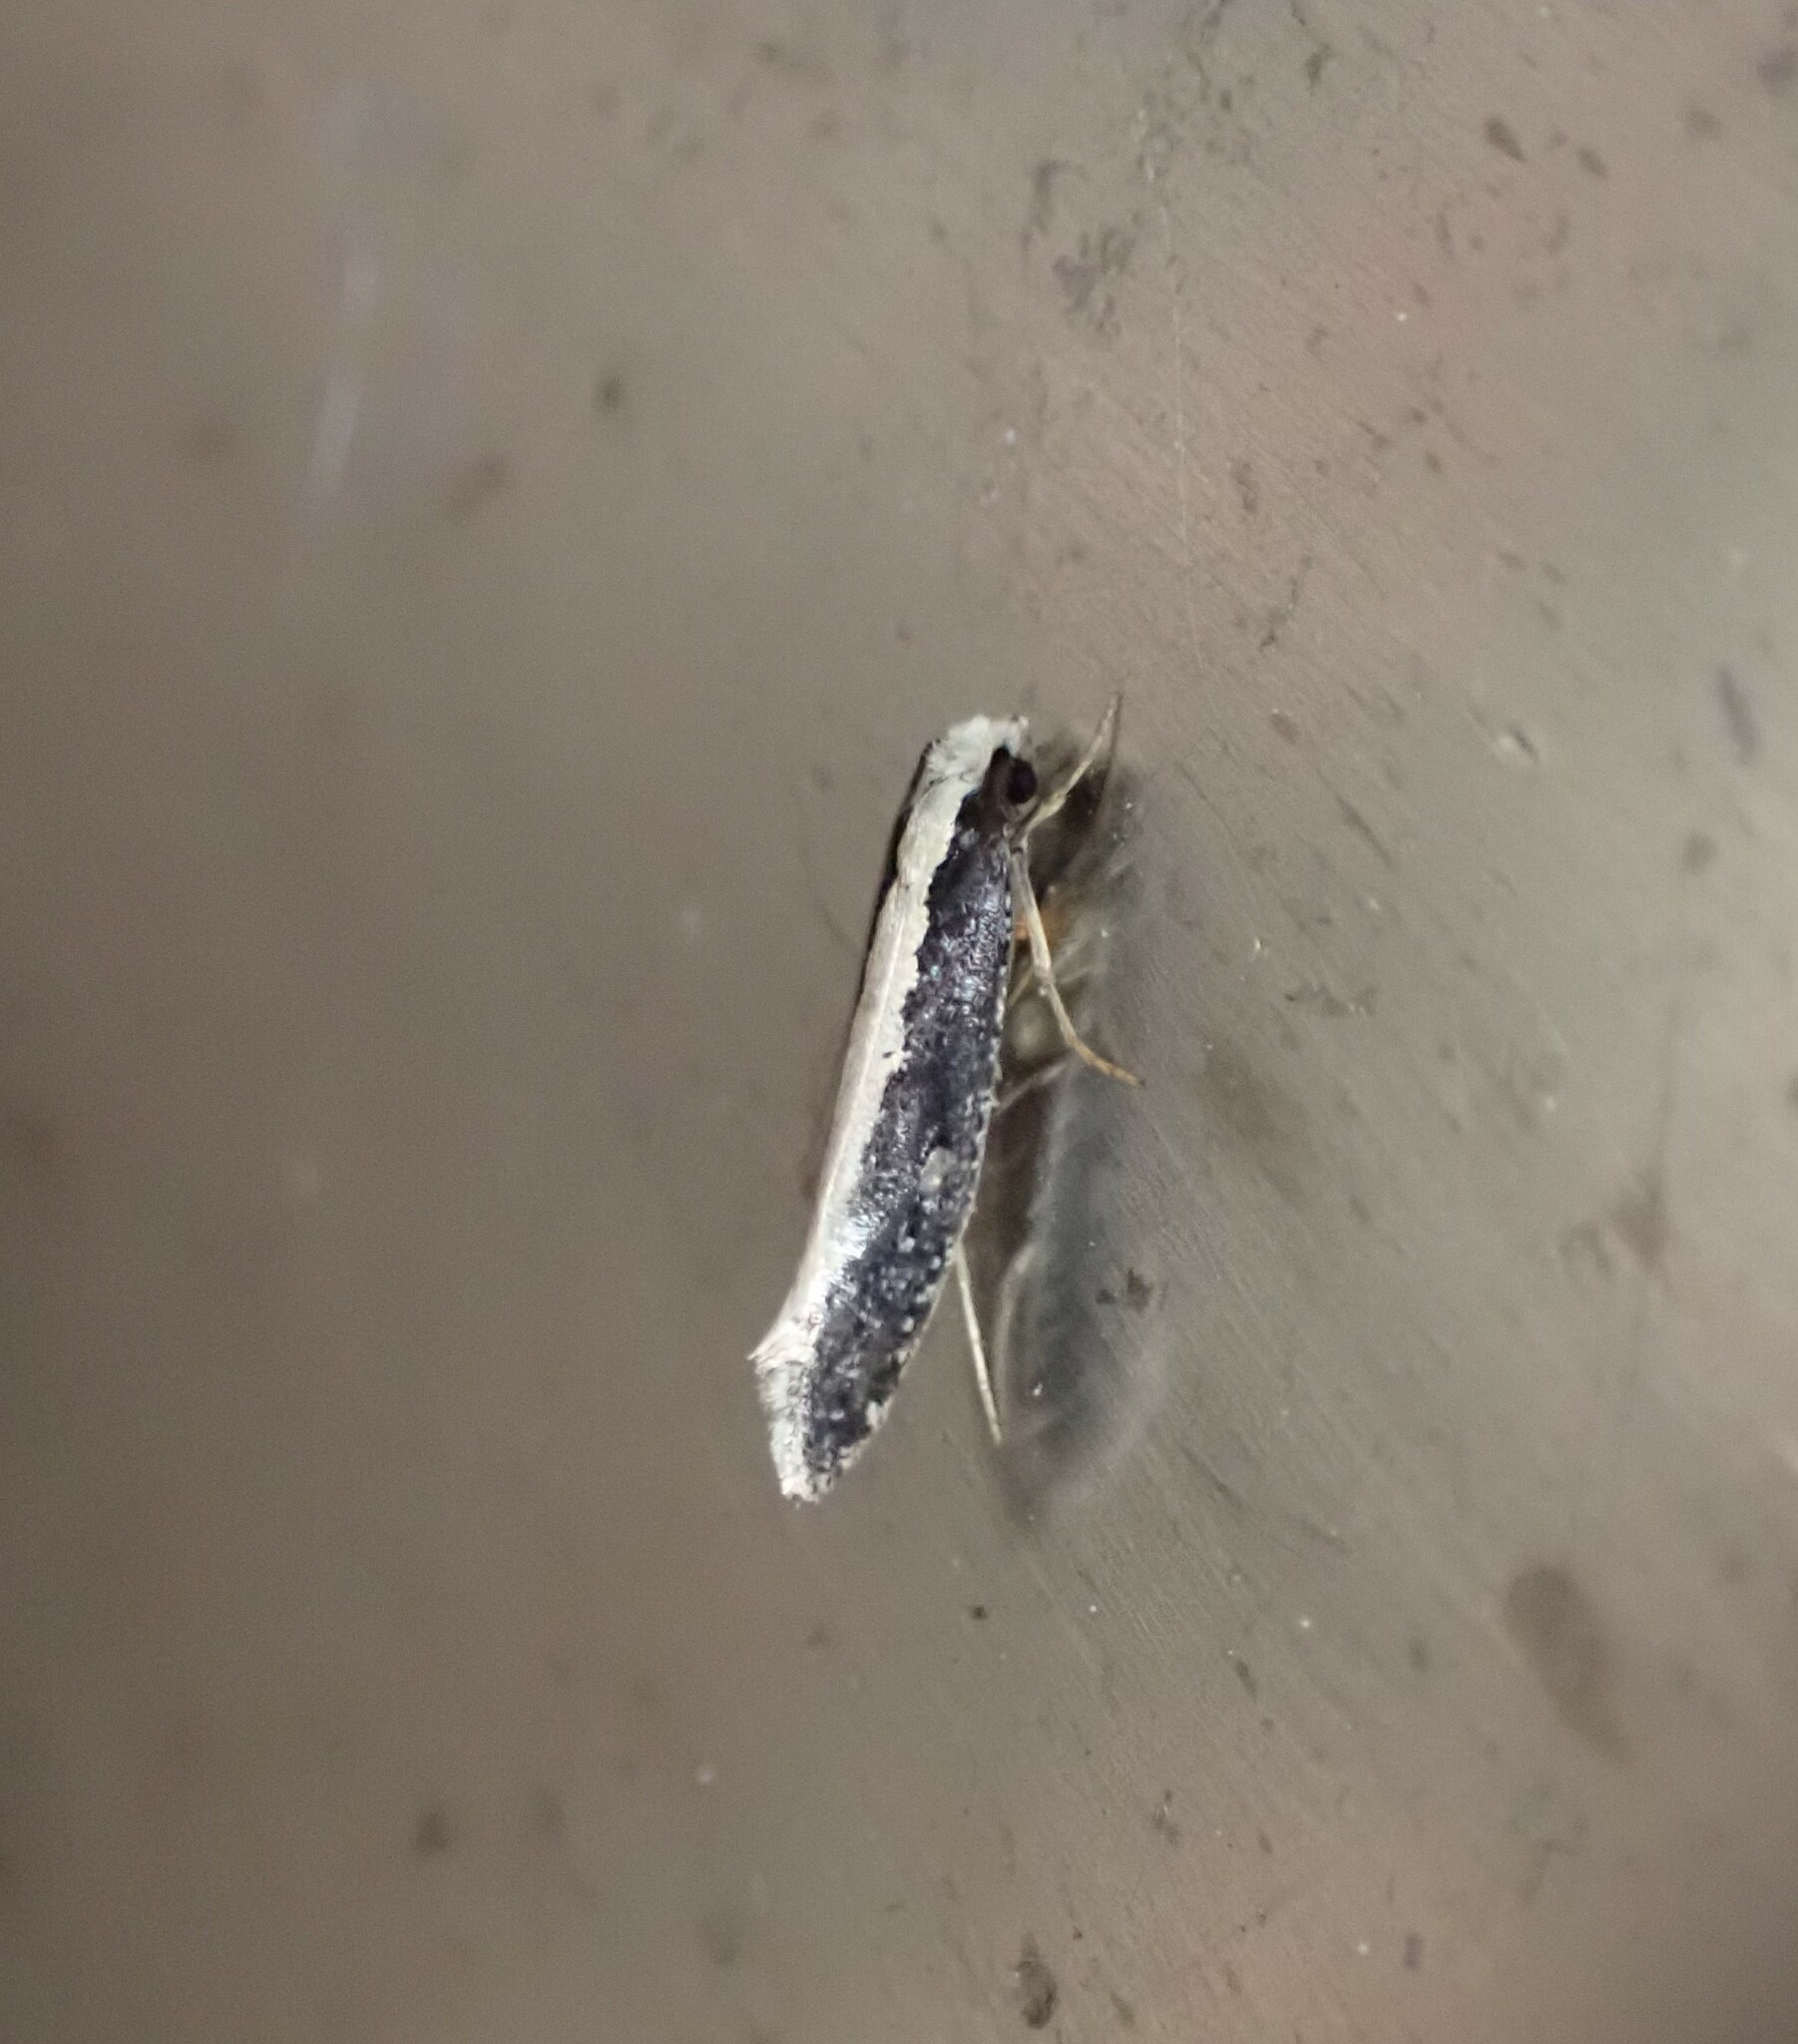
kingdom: Animalia
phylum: Arthropoda
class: Insecta
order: Lepidoptera
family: Tineidae
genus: Monopis
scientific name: Monopis ethelella
